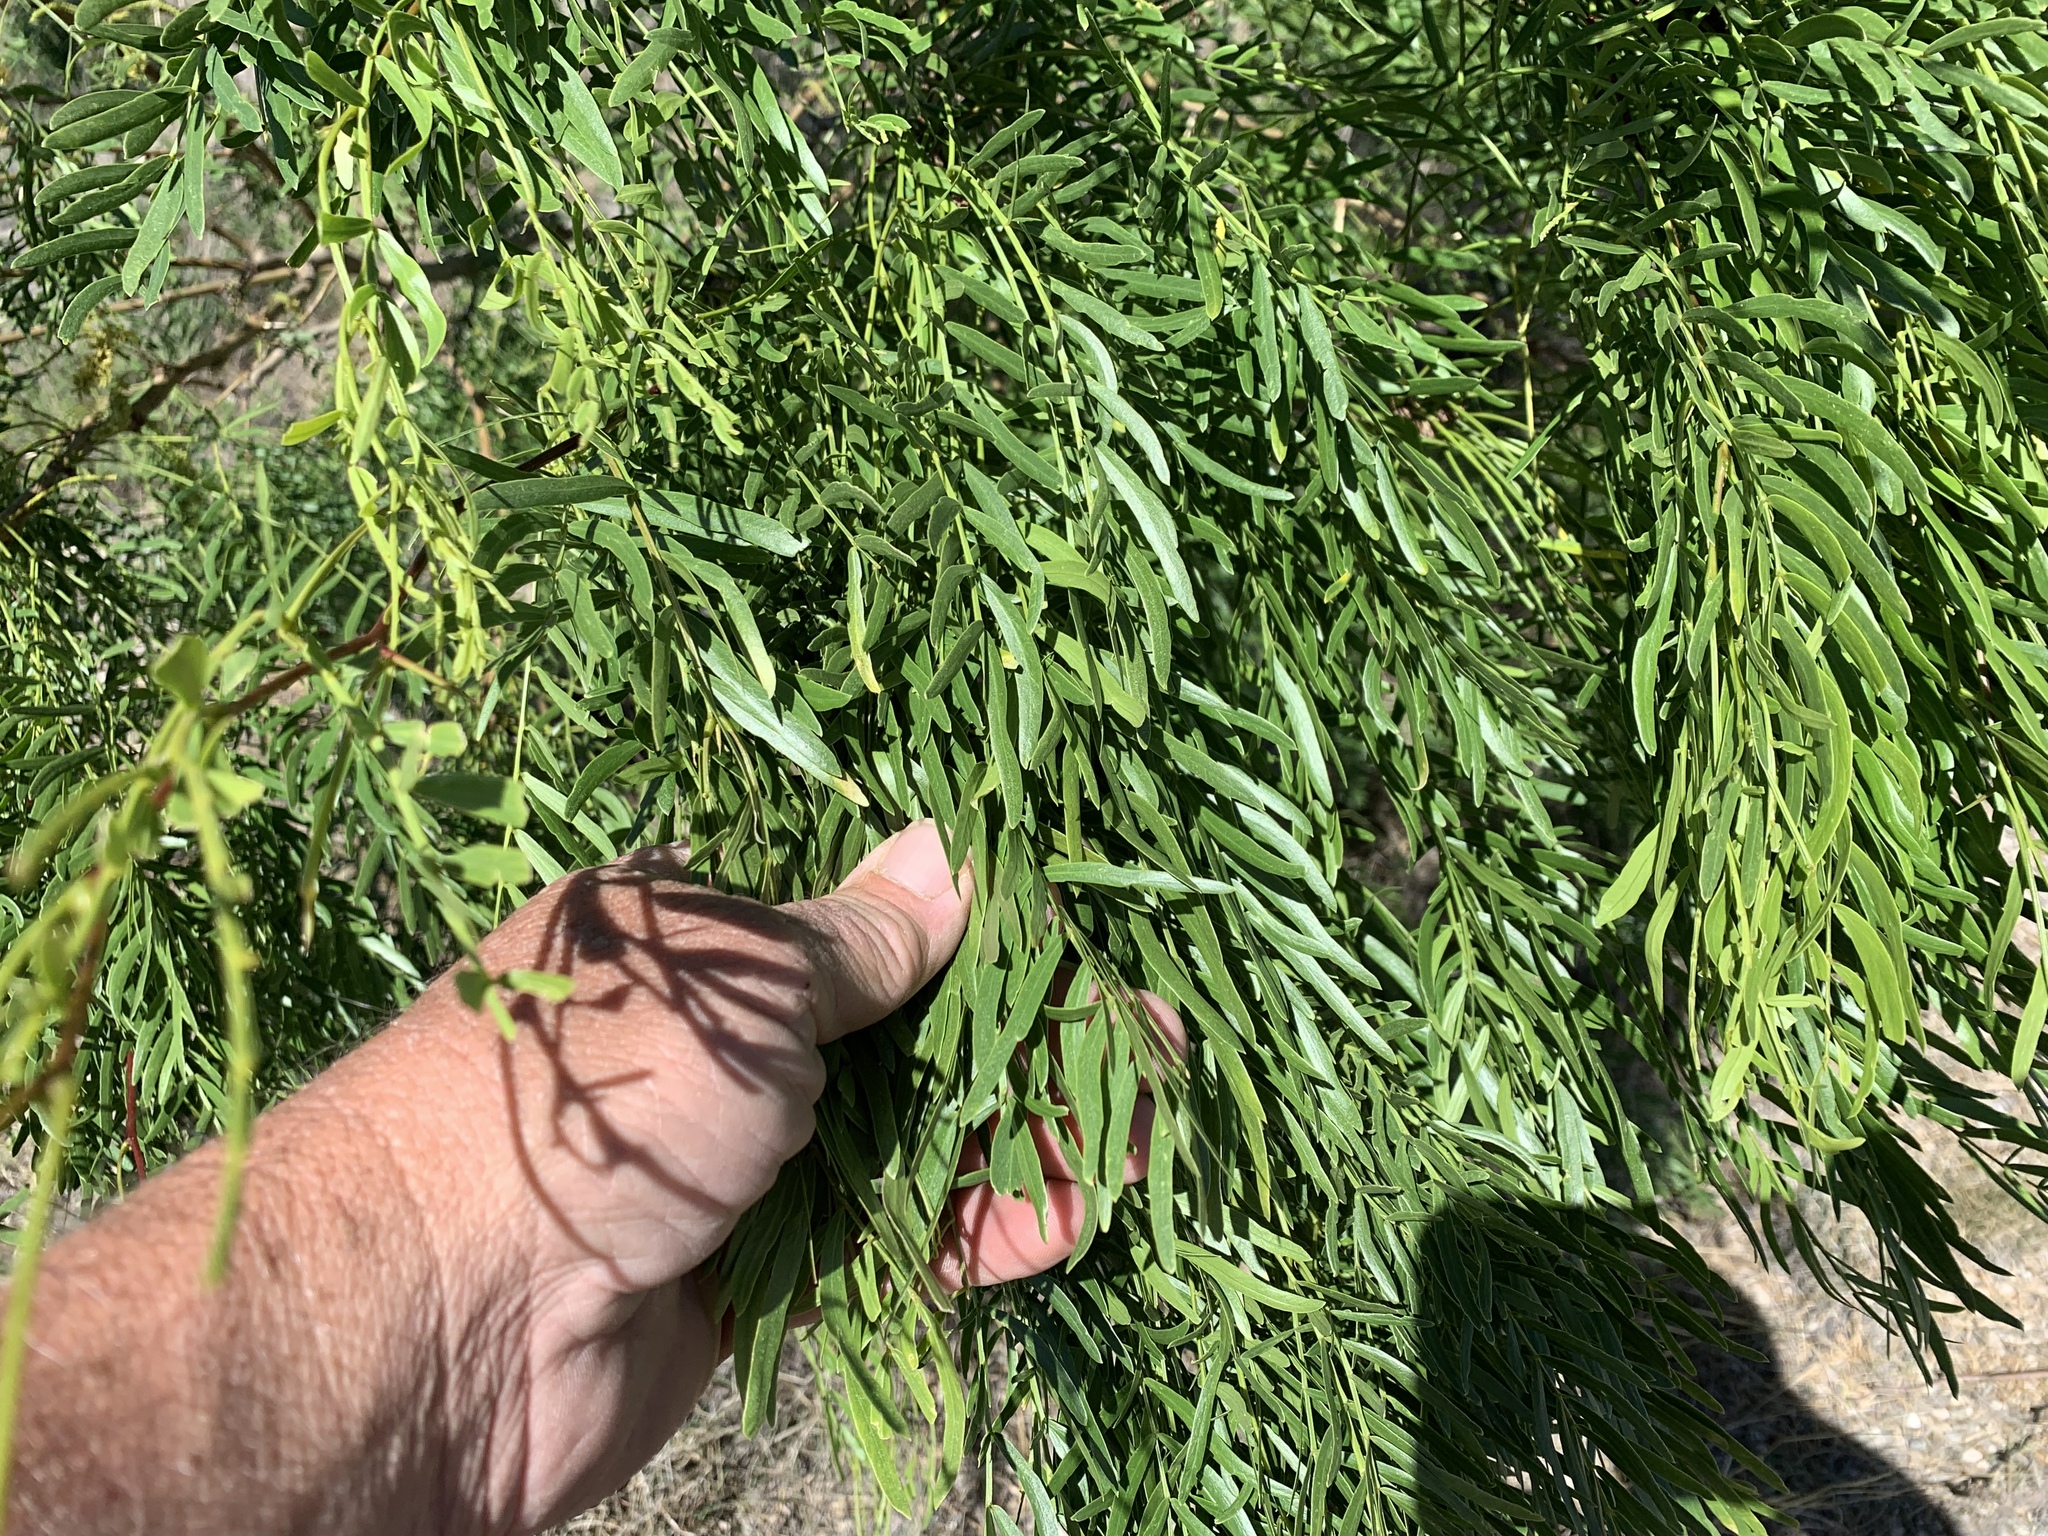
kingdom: Plantae
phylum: Tracheophyta
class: Magnoliopsida
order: Fabales
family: Fabaceae
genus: Prosopis
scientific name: Prosopis glandulosa
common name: Honey mesquite
